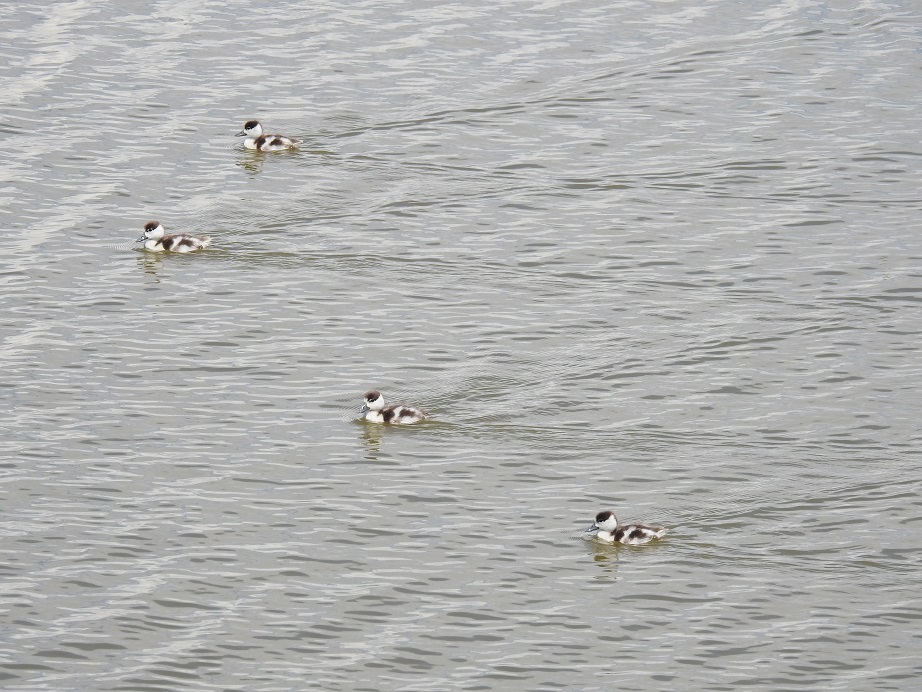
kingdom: Animalia
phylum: Chordata
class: Aves
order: Anseriformes
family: Anatidae
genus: Tadorna
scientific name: Tadorna tadorna
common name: Common shelduck
